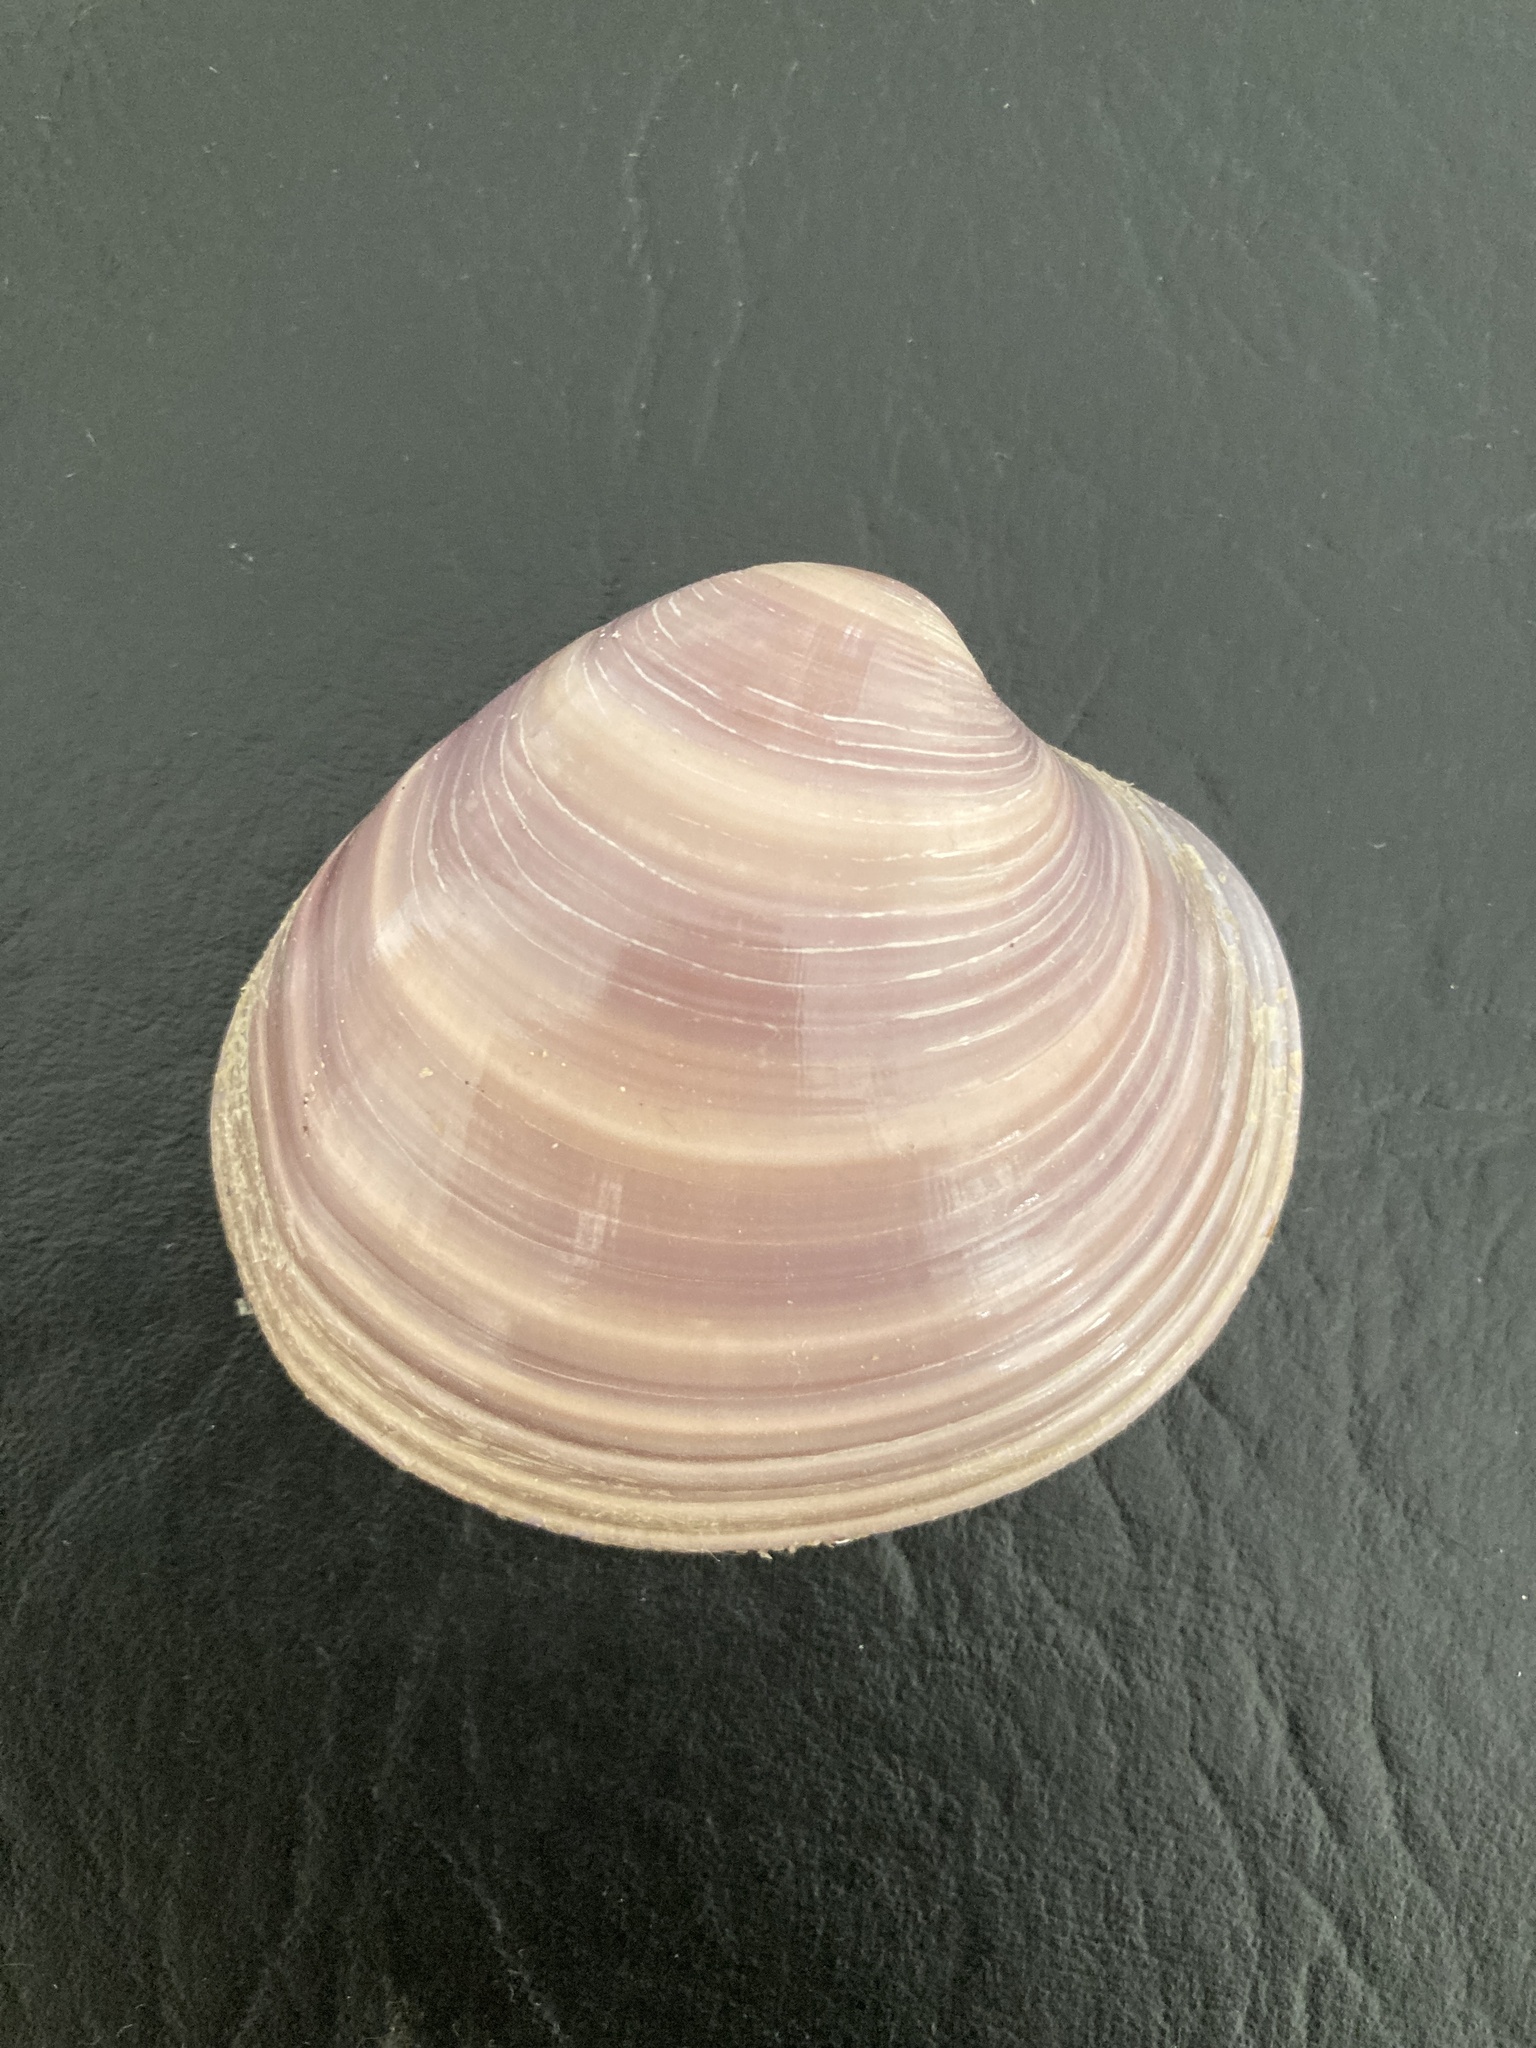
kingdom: Animalia
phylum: Mollusca
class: Bivalvia
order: Venerida
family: Veneridae
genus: Eucallista
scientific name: Eucallista purpurata
